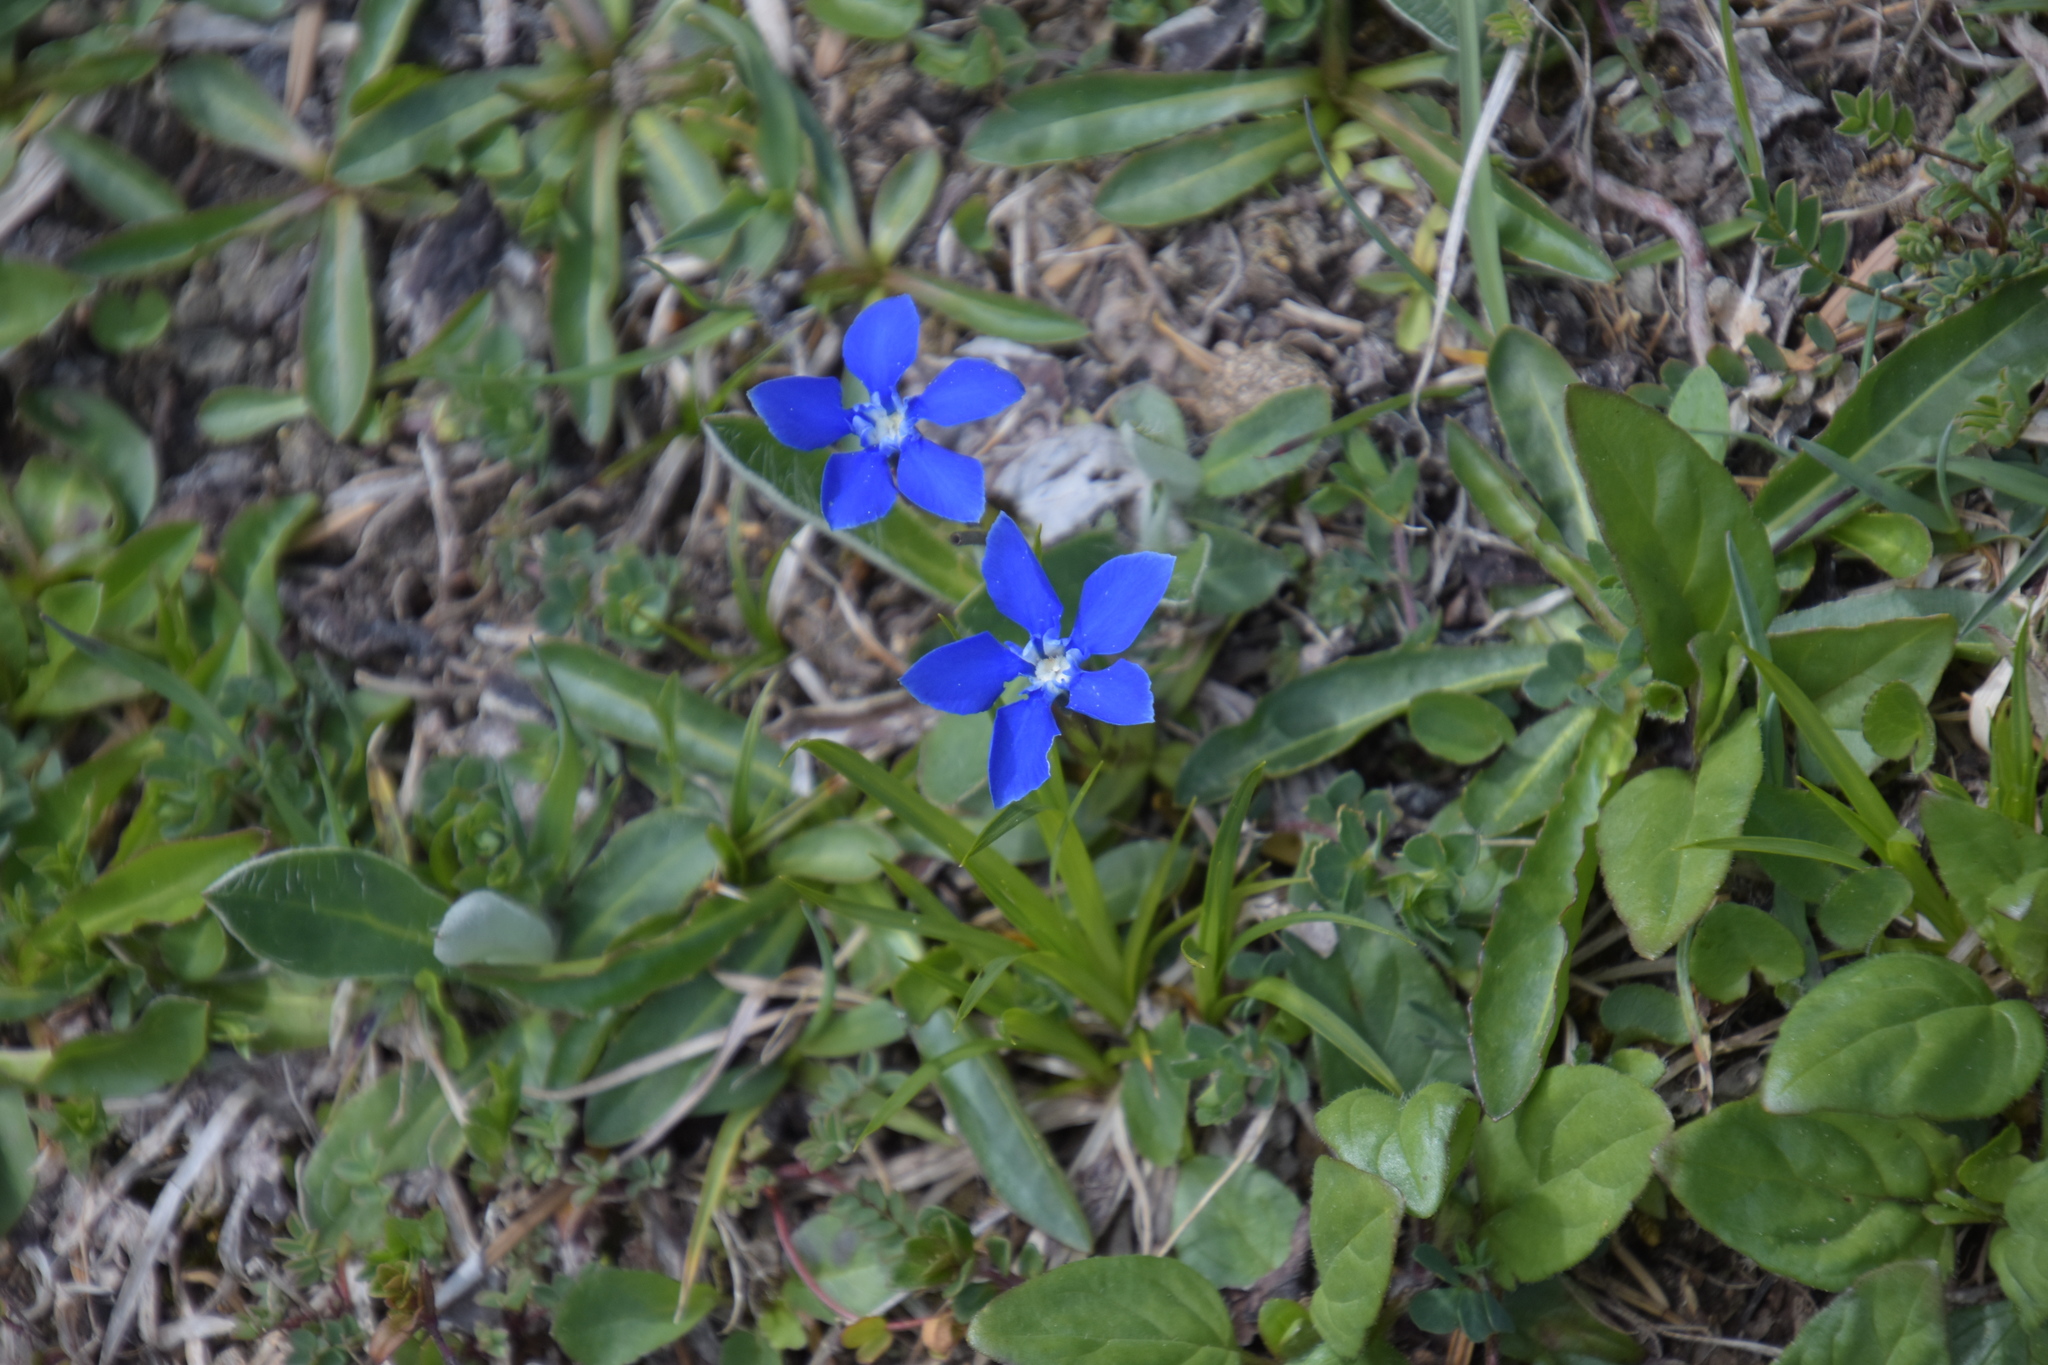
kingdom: Plantae
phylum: Tracheophyta
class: Magnoliopsida
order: Gentianales
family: Gentianaceae
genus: Gentiana
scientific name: Gentiana verna
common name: Spring gentian
